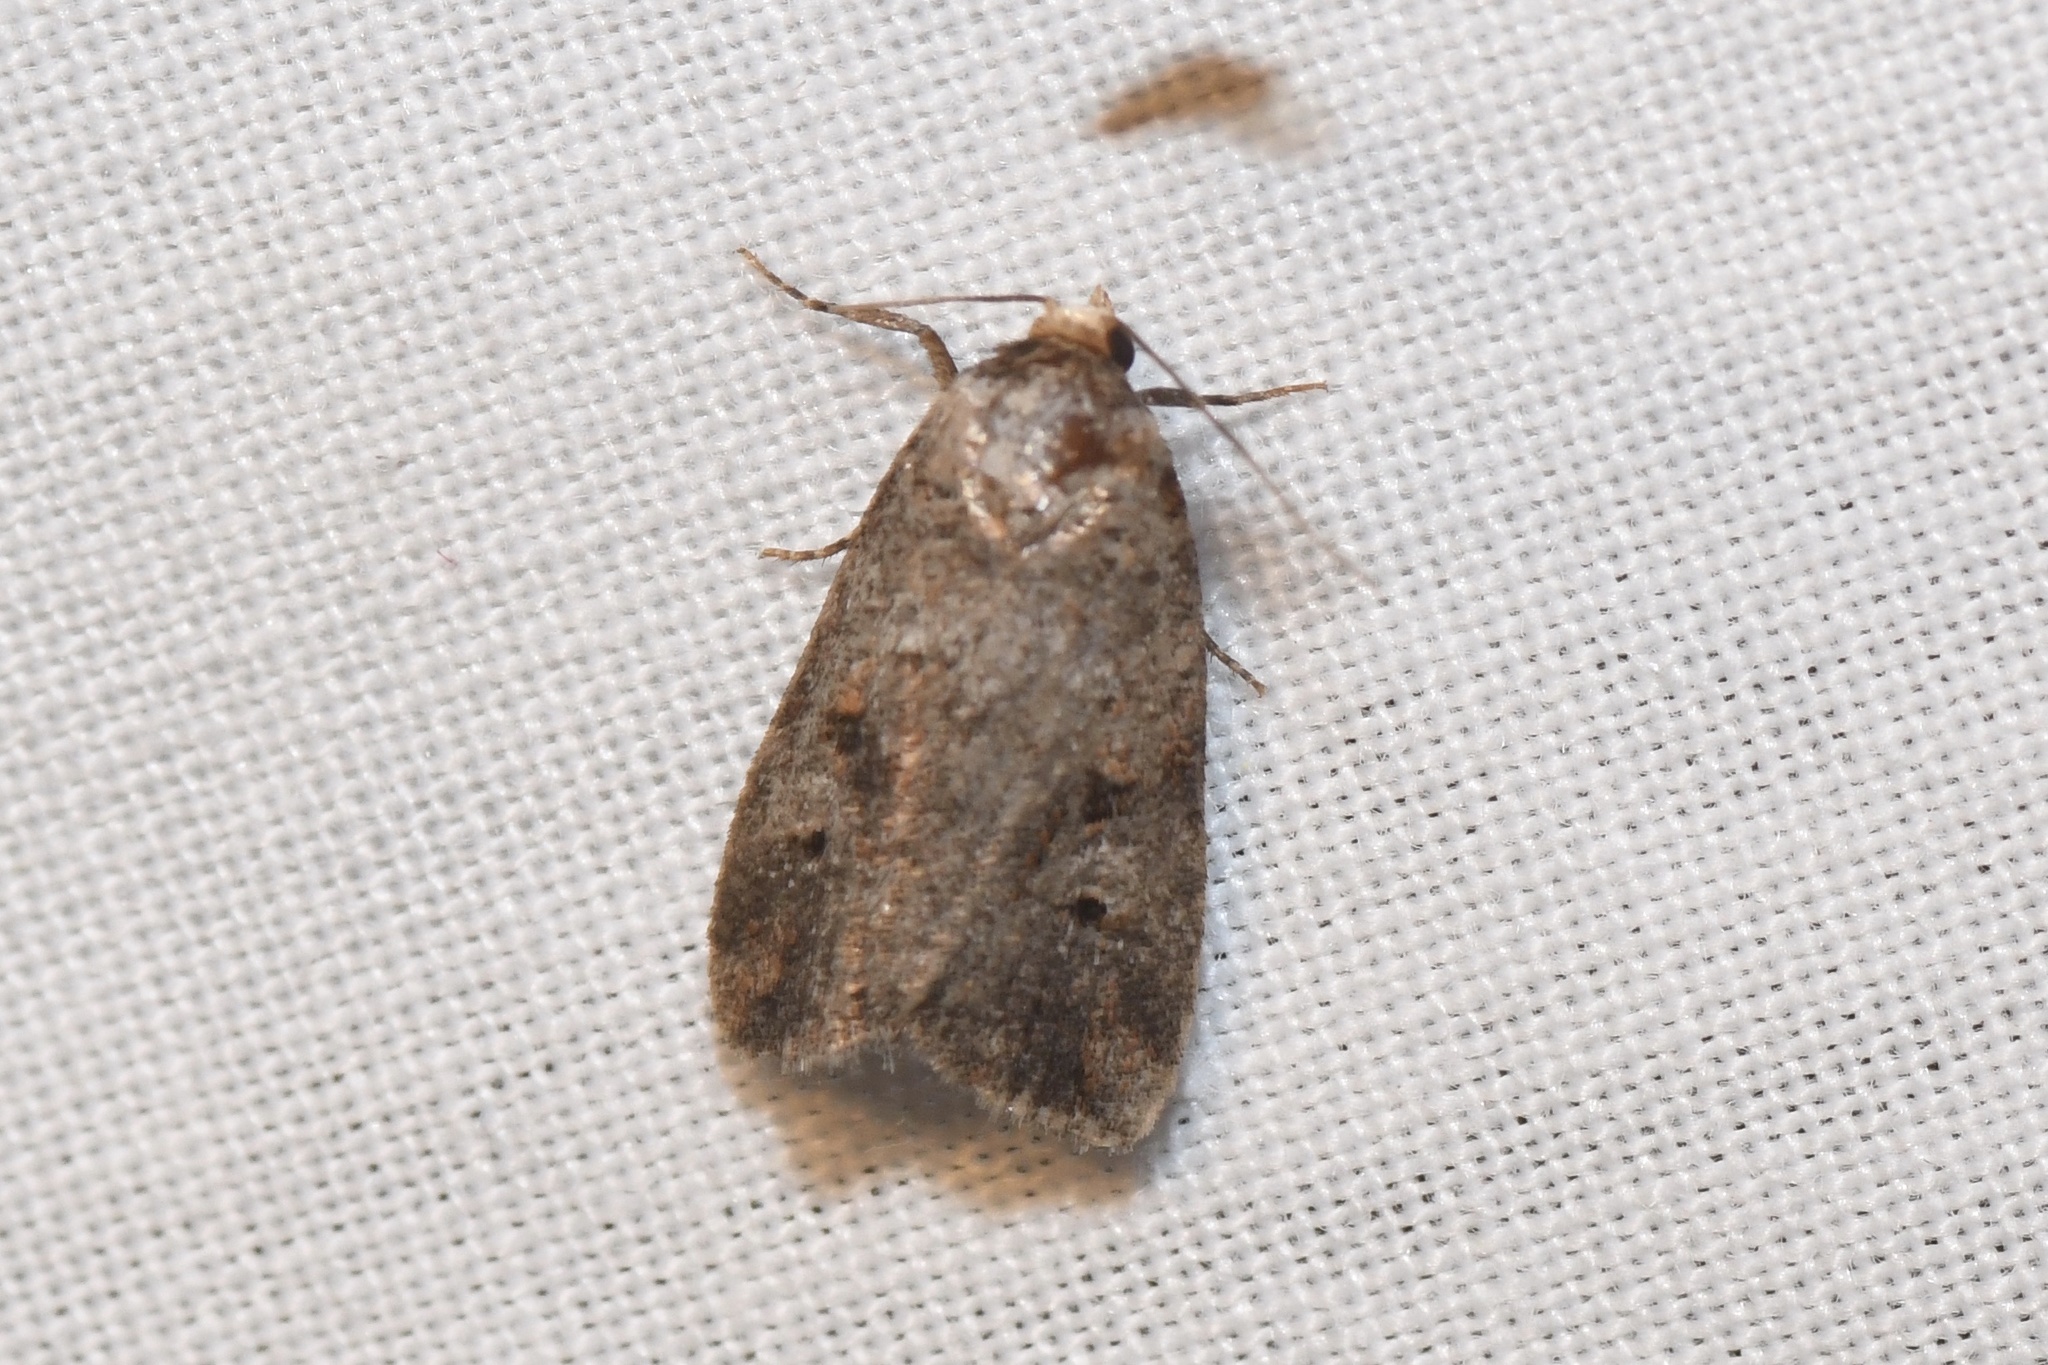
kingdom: Animalia
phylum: Arthropoda
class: Insecta
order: Lepidoptera
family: Noctuidae
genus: Elaphria
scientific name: Elaphria alapallida
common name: Pale-winged midget
